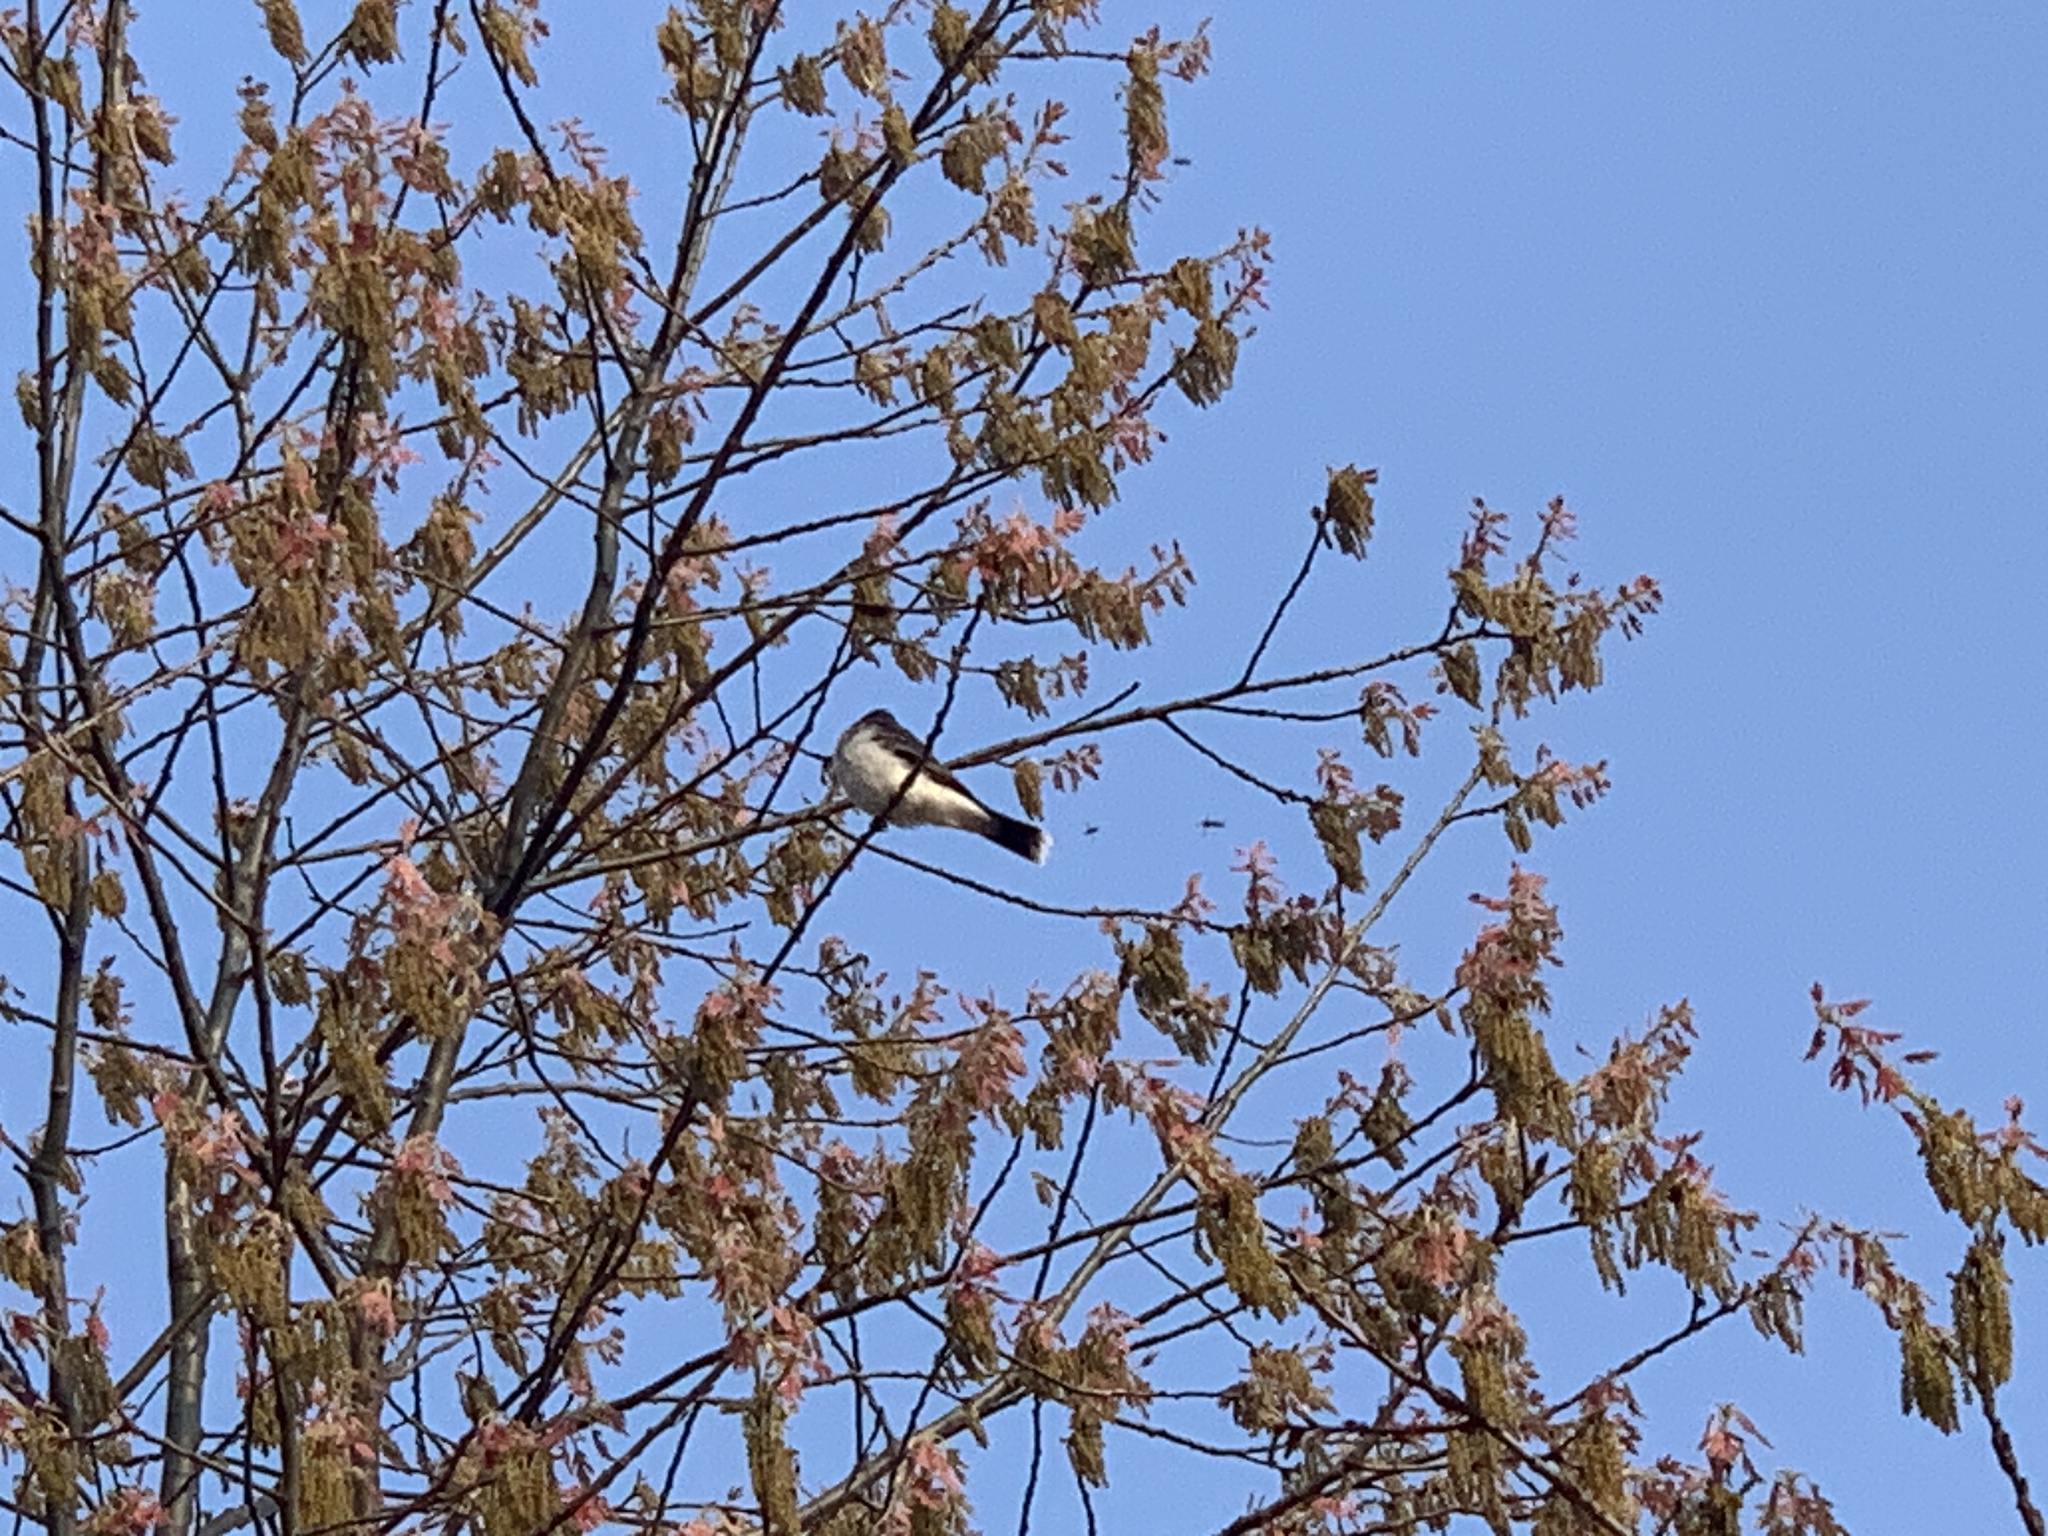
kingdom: Animalia
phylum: Chordata
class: Aves
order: Passeriformes
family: Tyrannidae
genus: Tyrannus
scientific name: Tyrannus tyrannus
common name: Eastern kingbird
